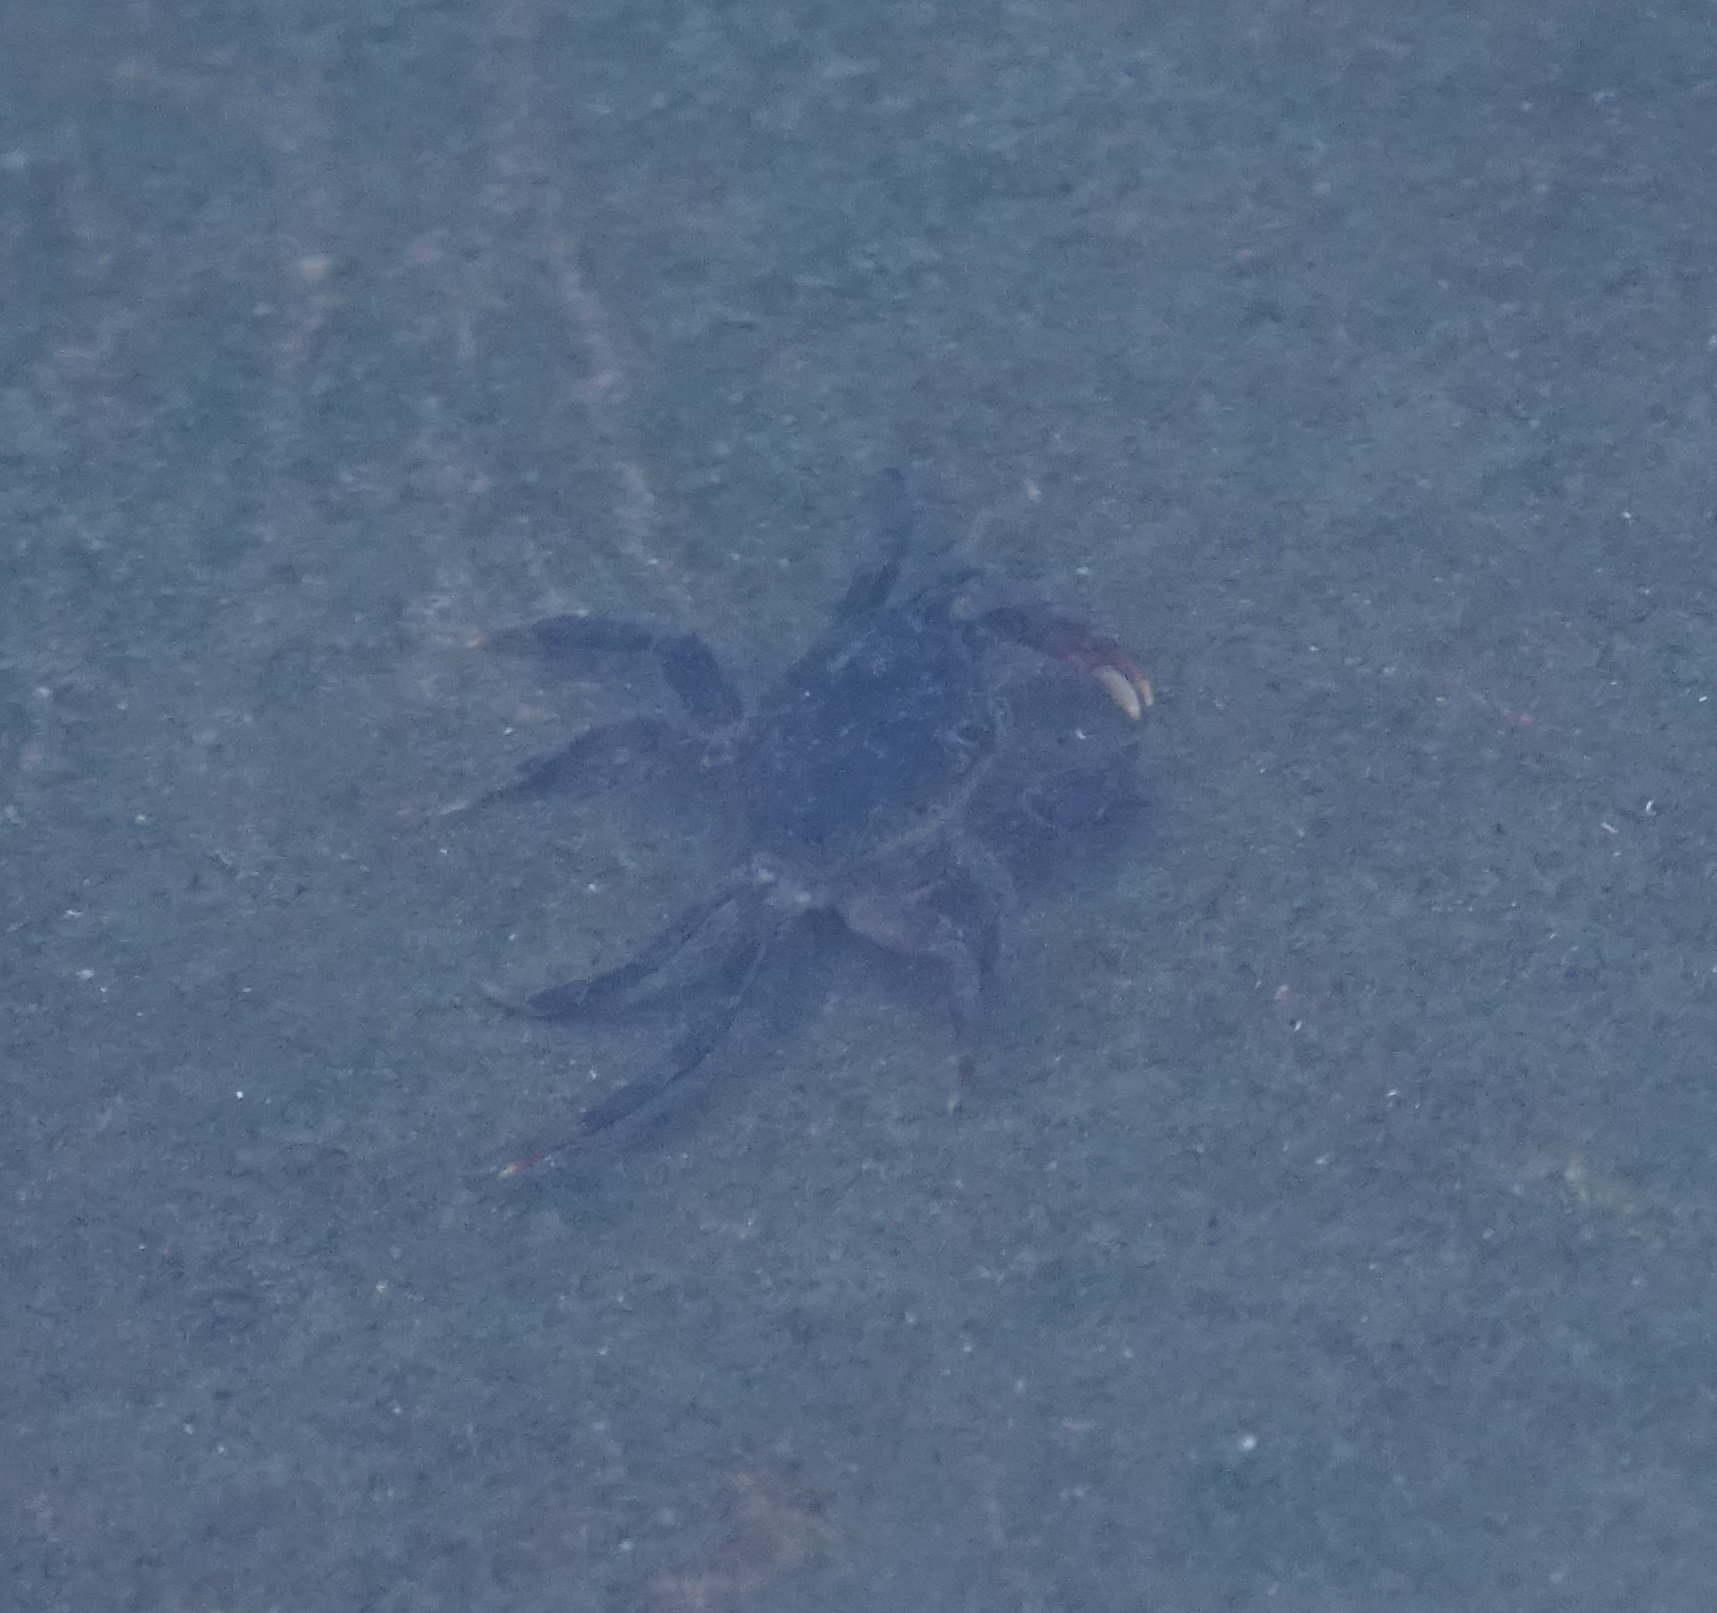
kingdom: Animalia
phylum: Arthropoda
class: Malacostraca
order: Decapoda
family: Grapsidae
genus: Leptograpsus
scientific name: Leptograpsus variegatus
